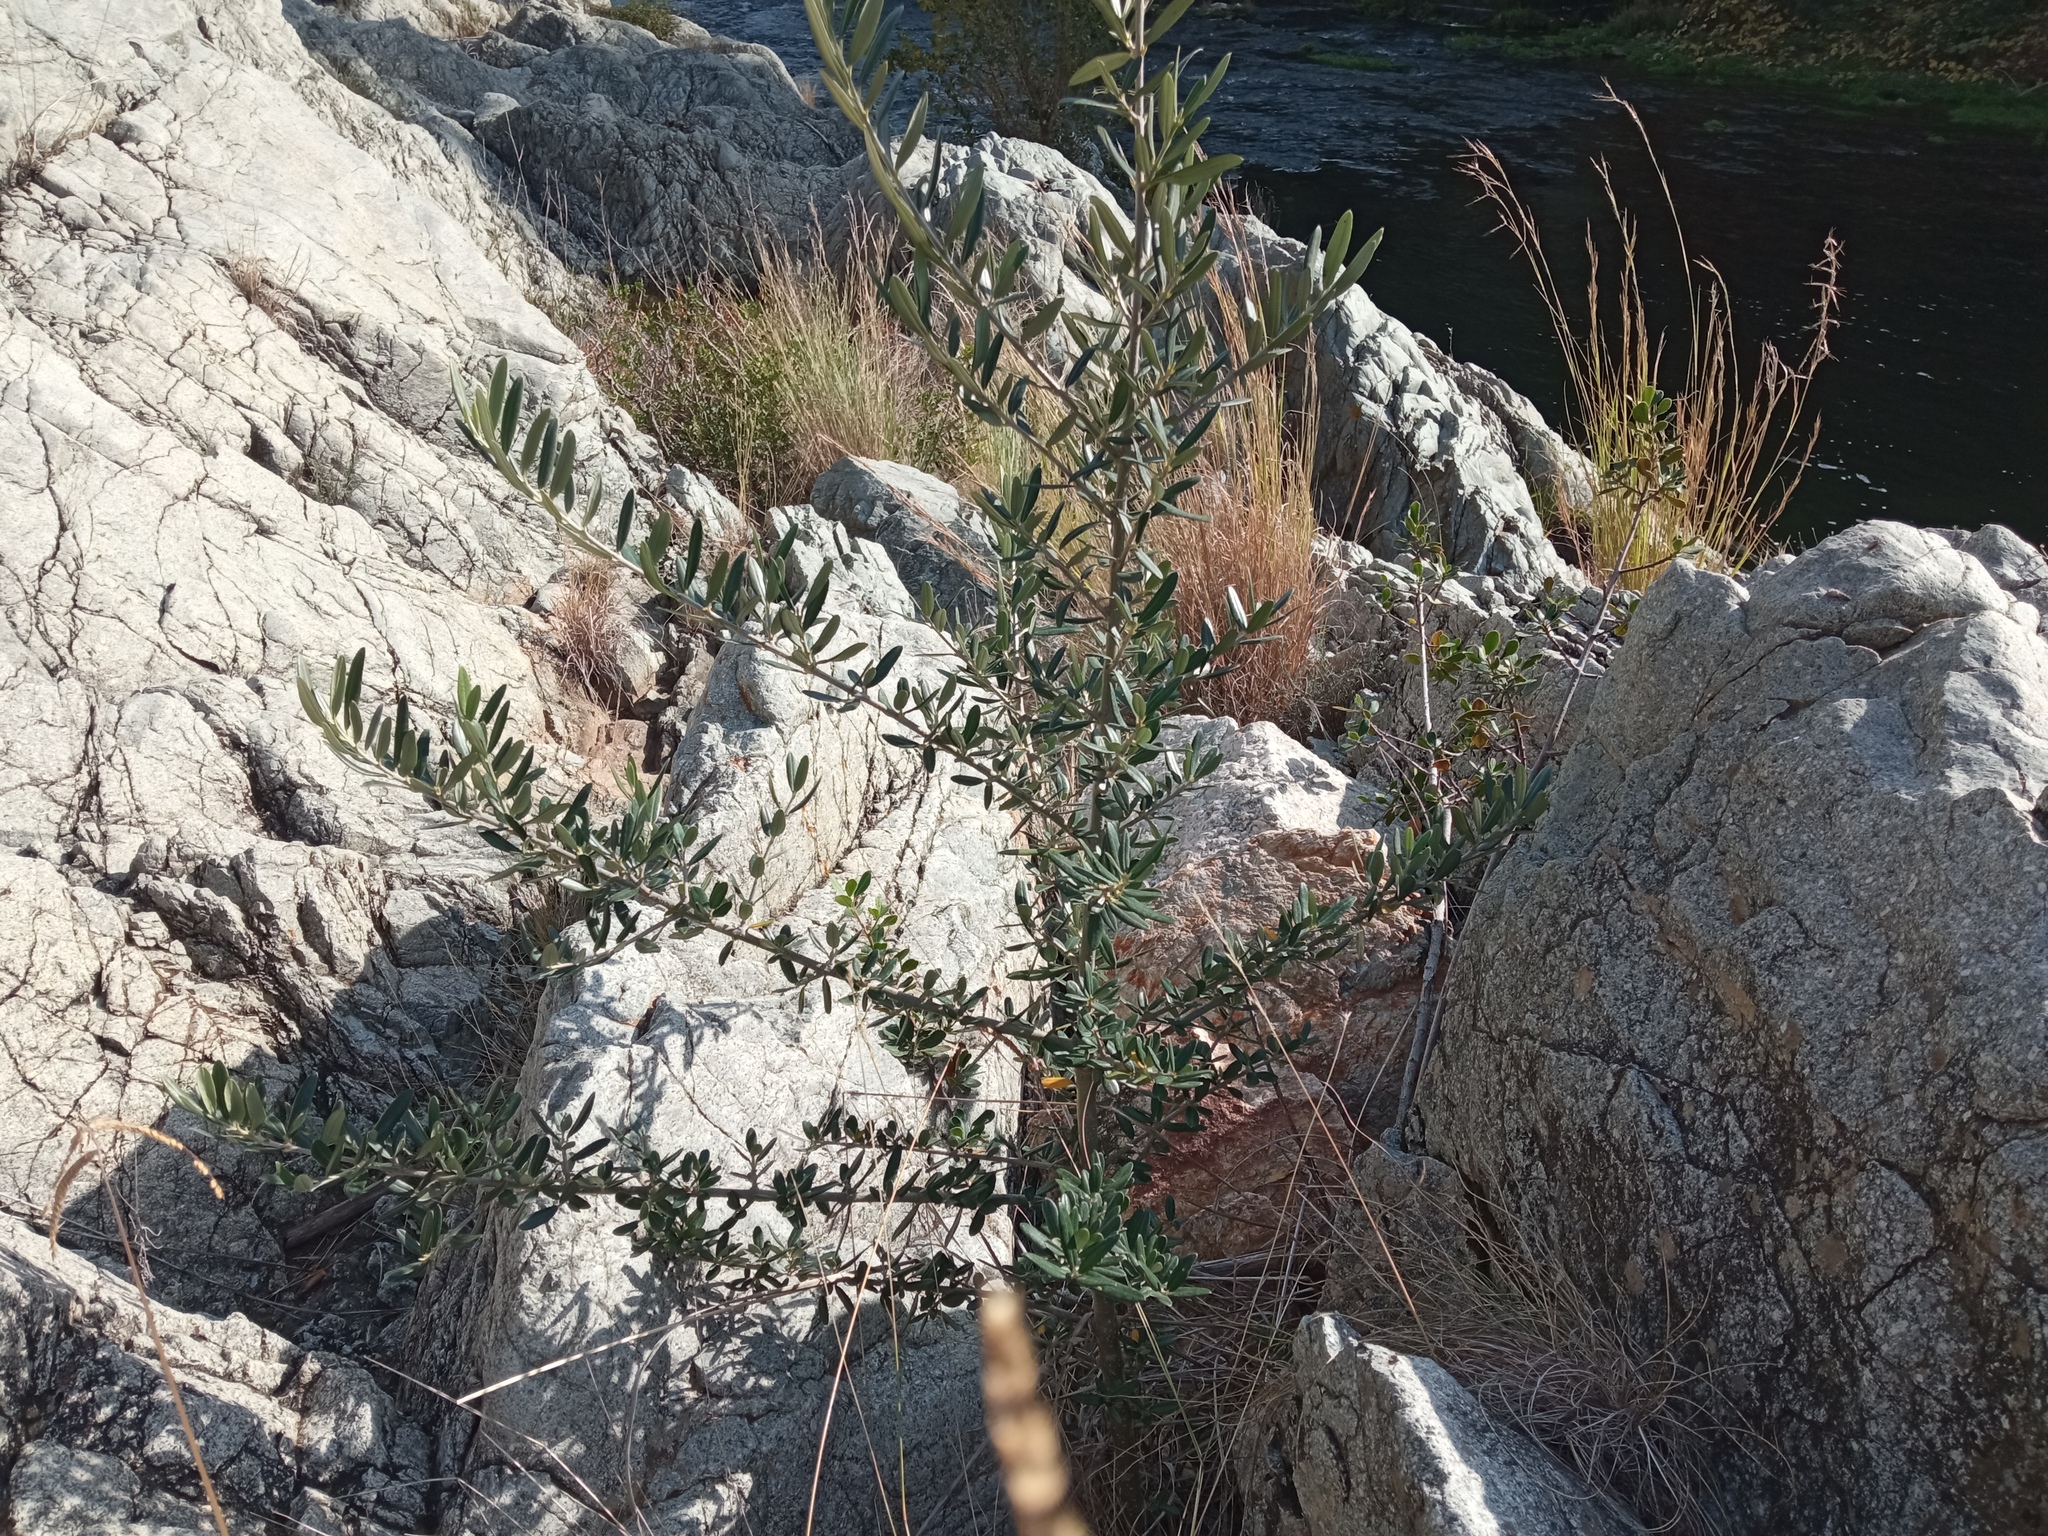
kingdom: Plantae
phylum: Tracheophyta
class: Magnoliopsida
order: Lamiales
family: Oleaceae
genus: Olea
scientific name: Olea europaea
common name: Olive
